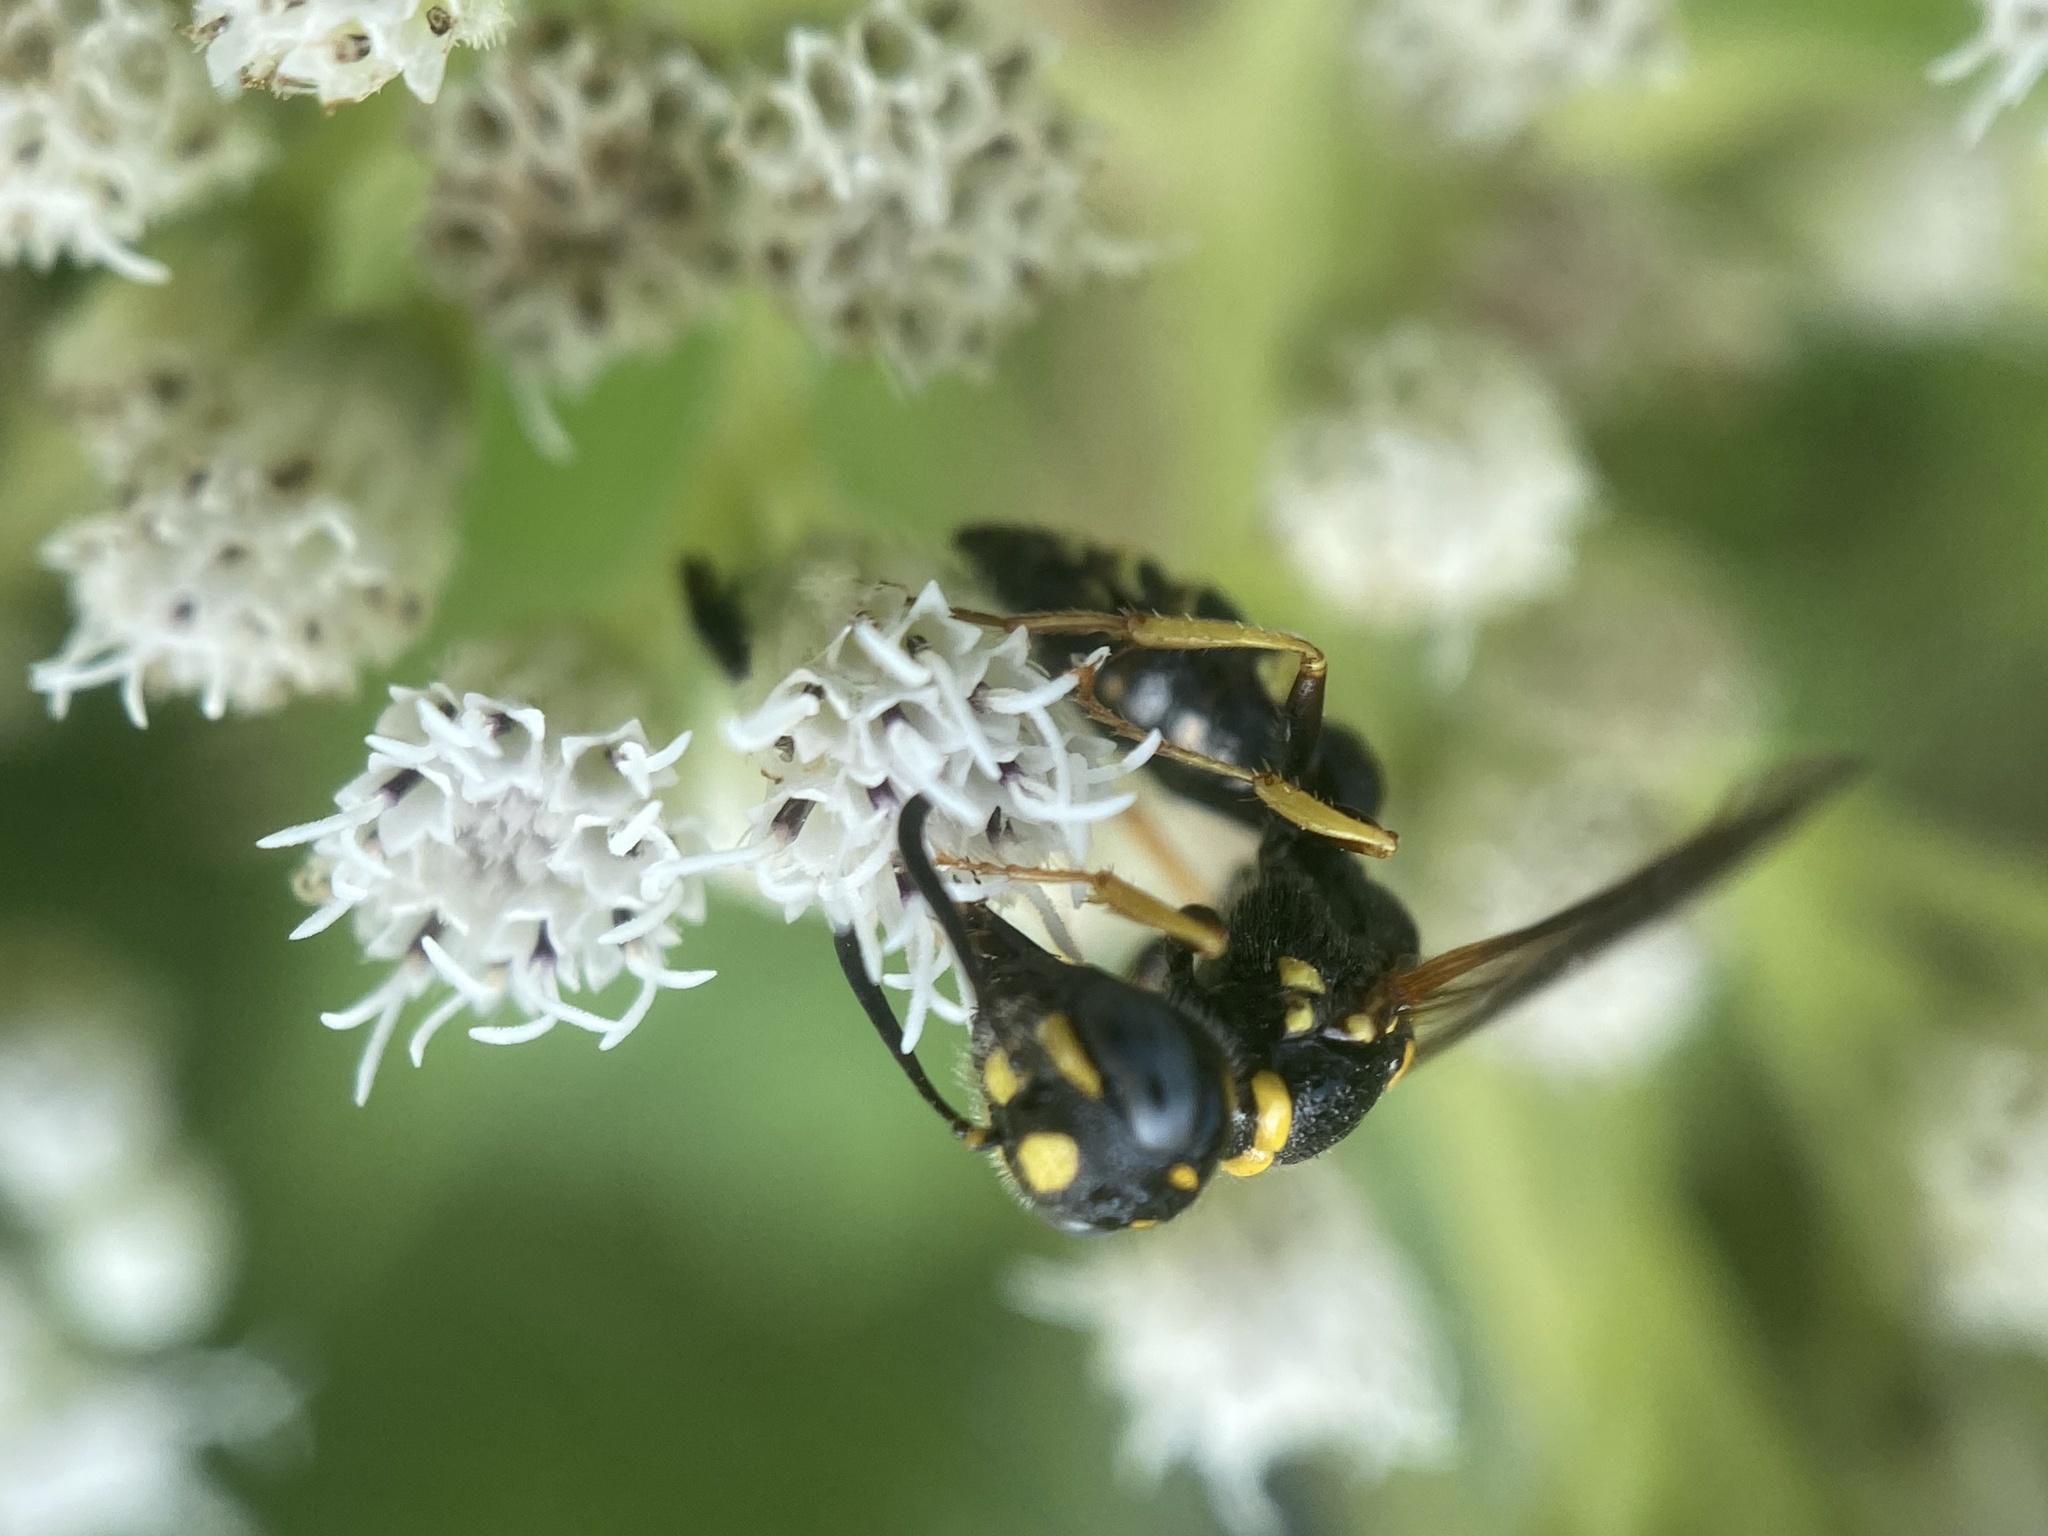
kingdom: Animalia
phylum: Arthropoda
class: Insecta
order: Hymenoptera
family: Crabronidae
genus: Philanthus
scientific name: Philanthus gibbosus
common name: Humped beewolf
